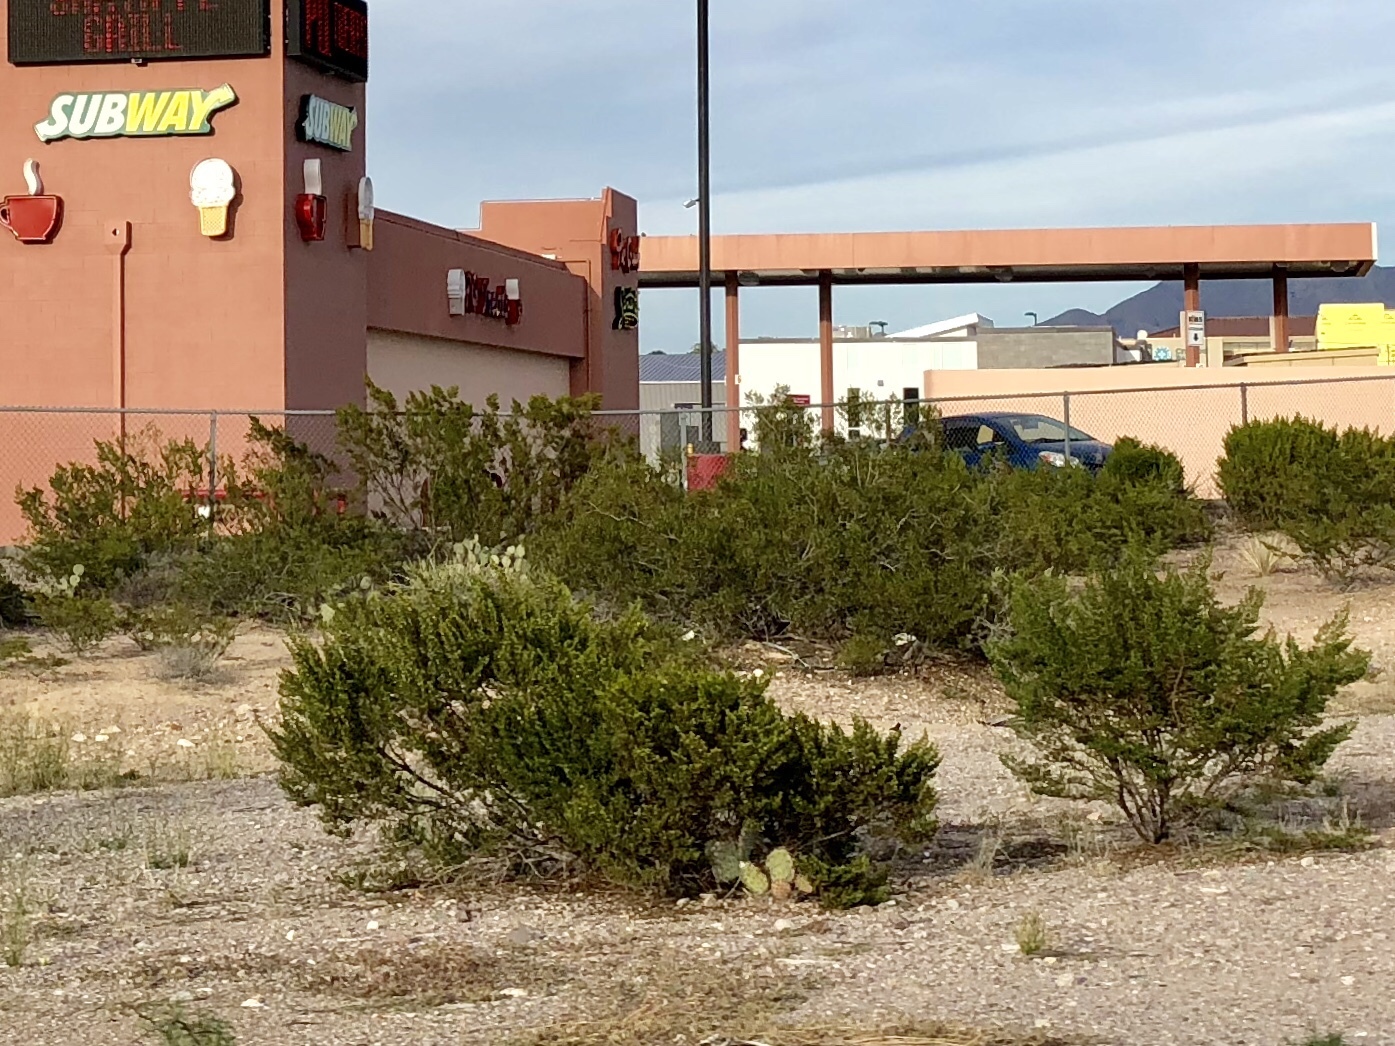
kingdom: Plantae
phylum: Tracheophyta
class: Magnoliopsida
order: Zygophyllales
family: Zygophyllaceae
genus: Larrea
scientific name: Larrea tridentata
